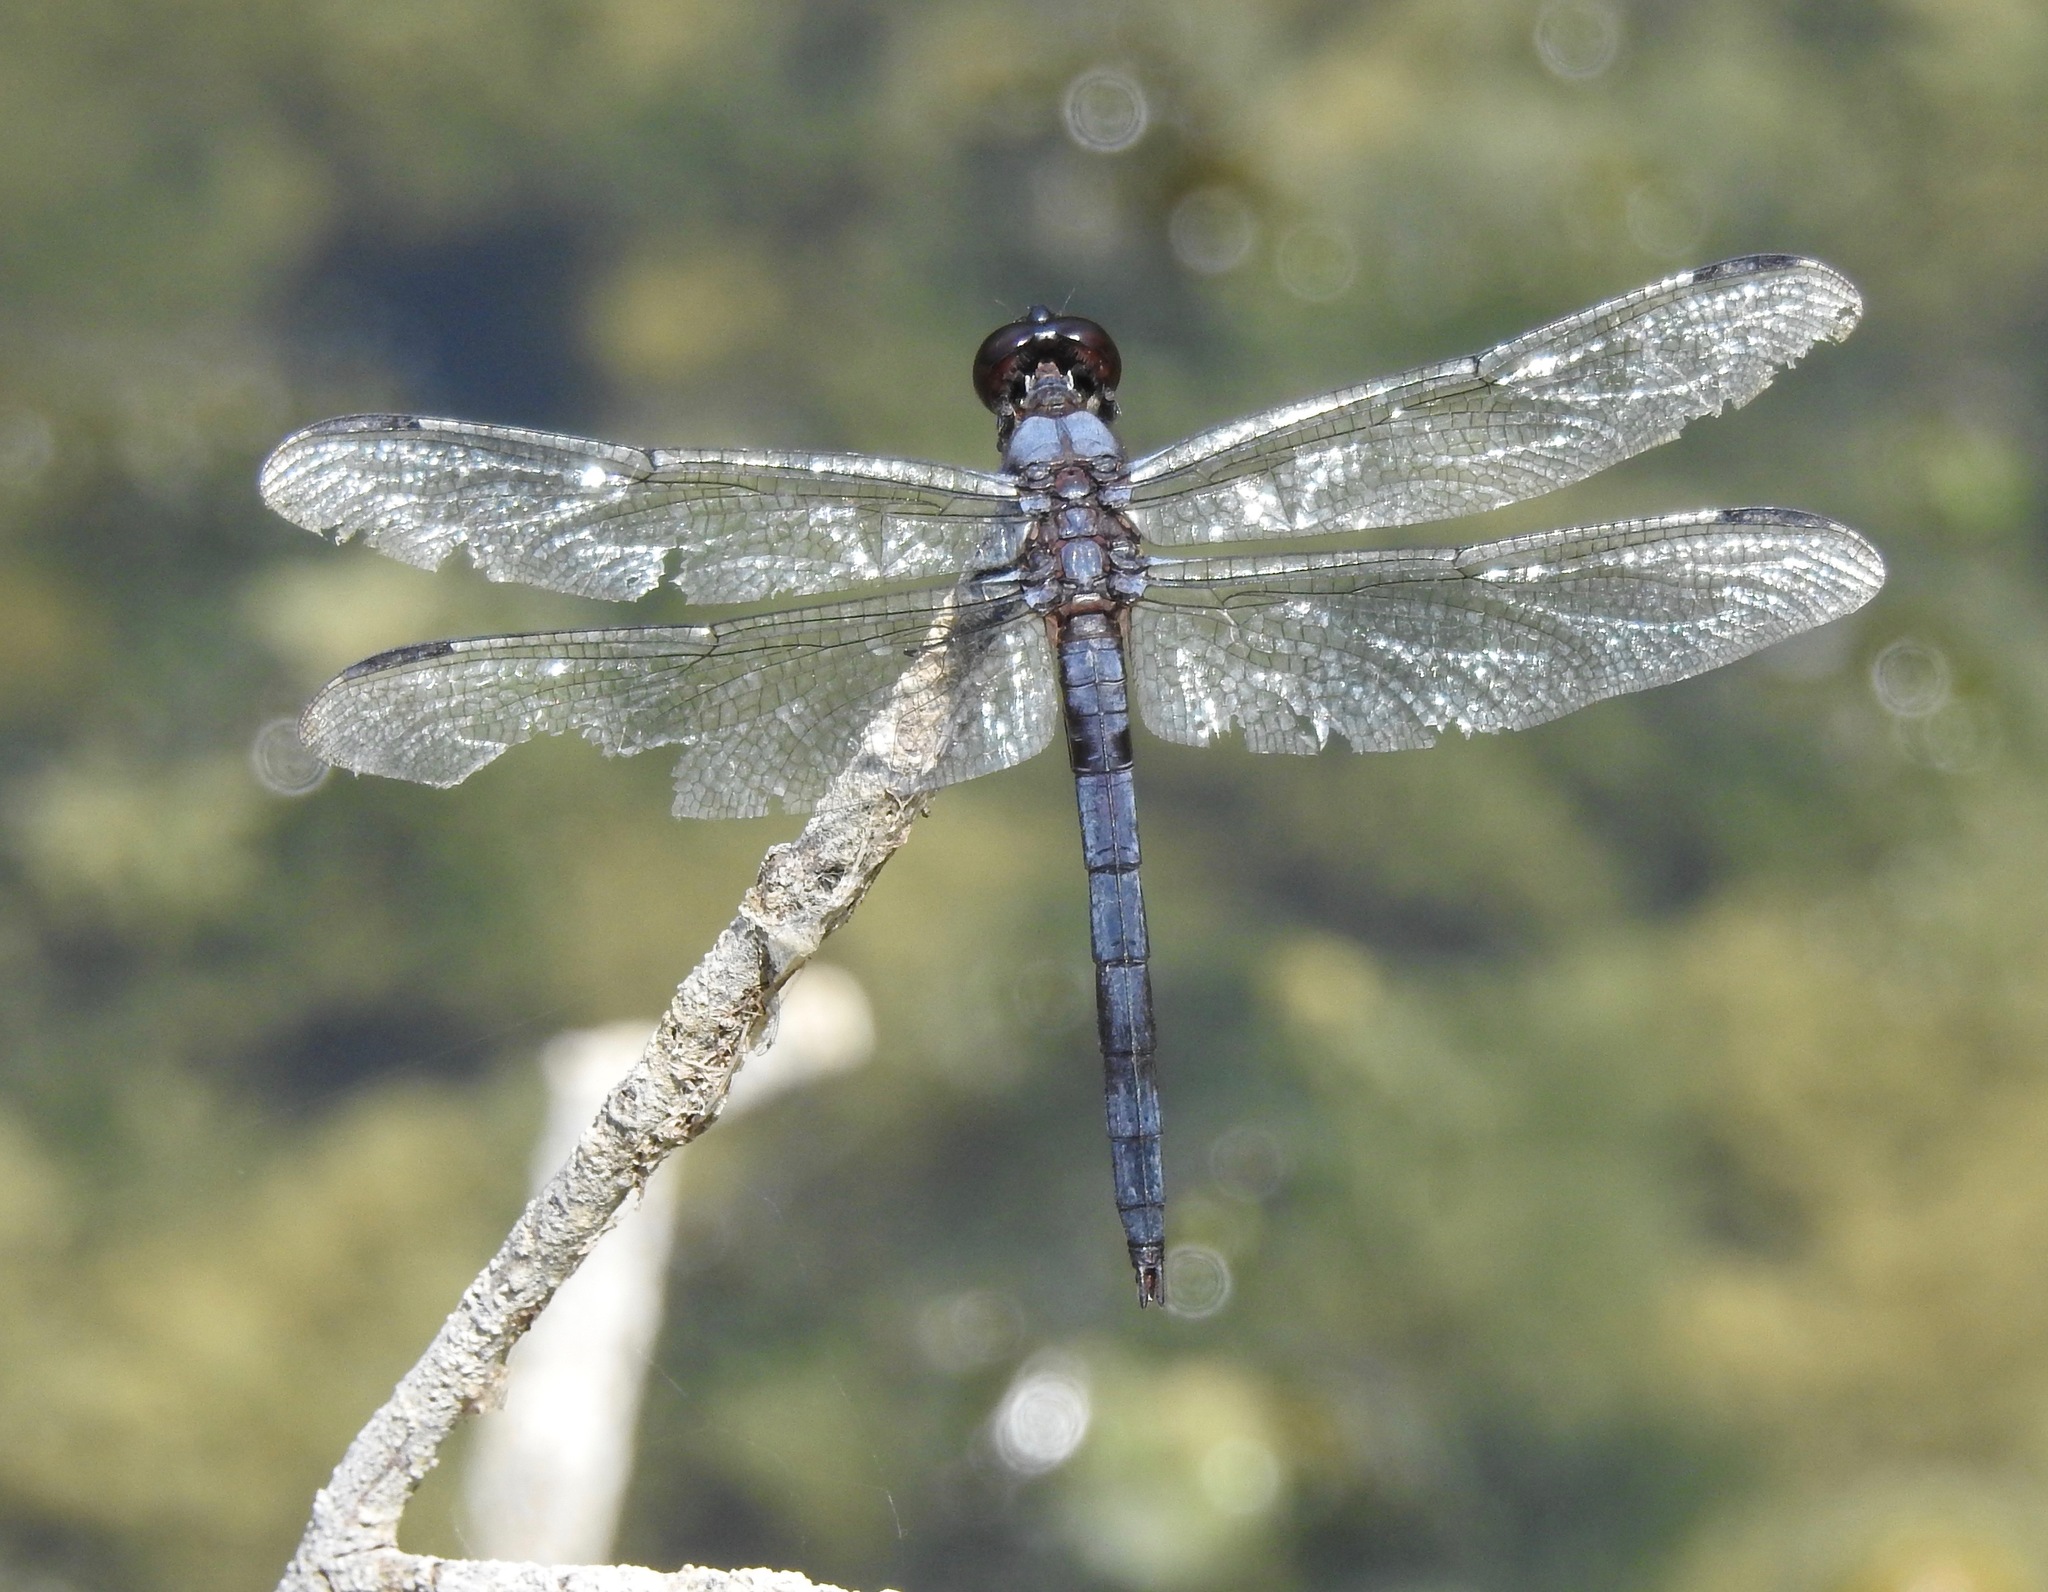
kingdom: Animalia
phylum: Arthropoda
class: Insecta
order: Odonata
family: Libellulidae
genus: Libellula
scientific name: Libellula incesta
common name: Slaty skimmer
